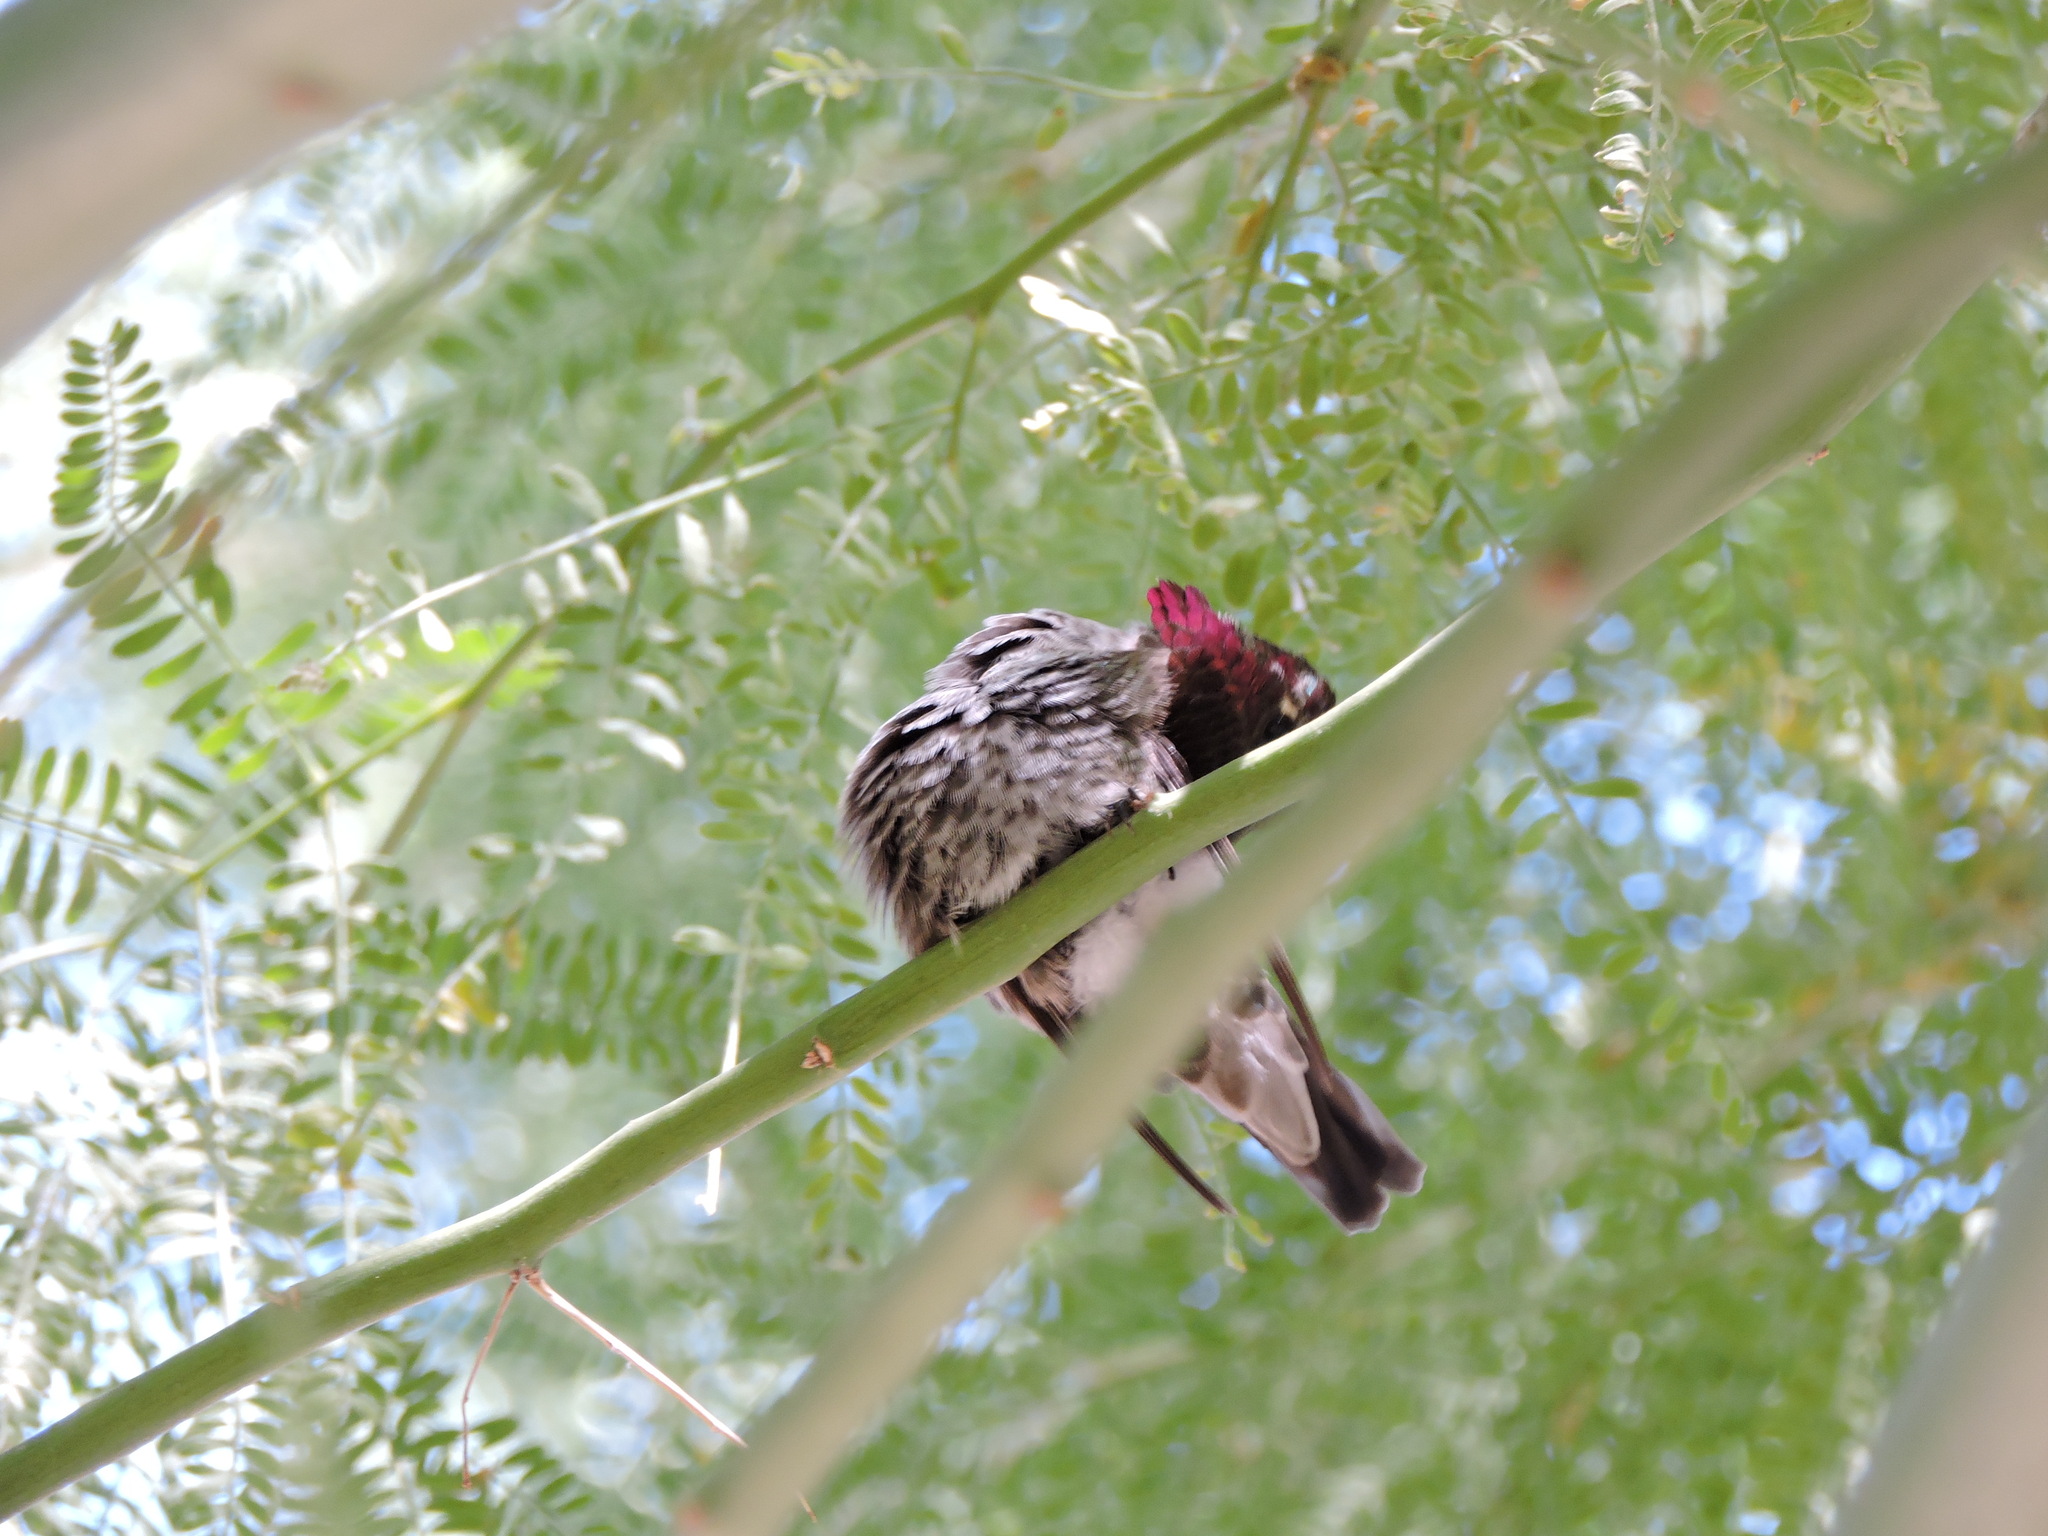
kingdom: Animalia
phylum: Chordata
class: Aves
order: Apodiformes
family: Trochilidae
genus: Calypte
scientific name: Calypte anna
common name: Anna's hummingbird
